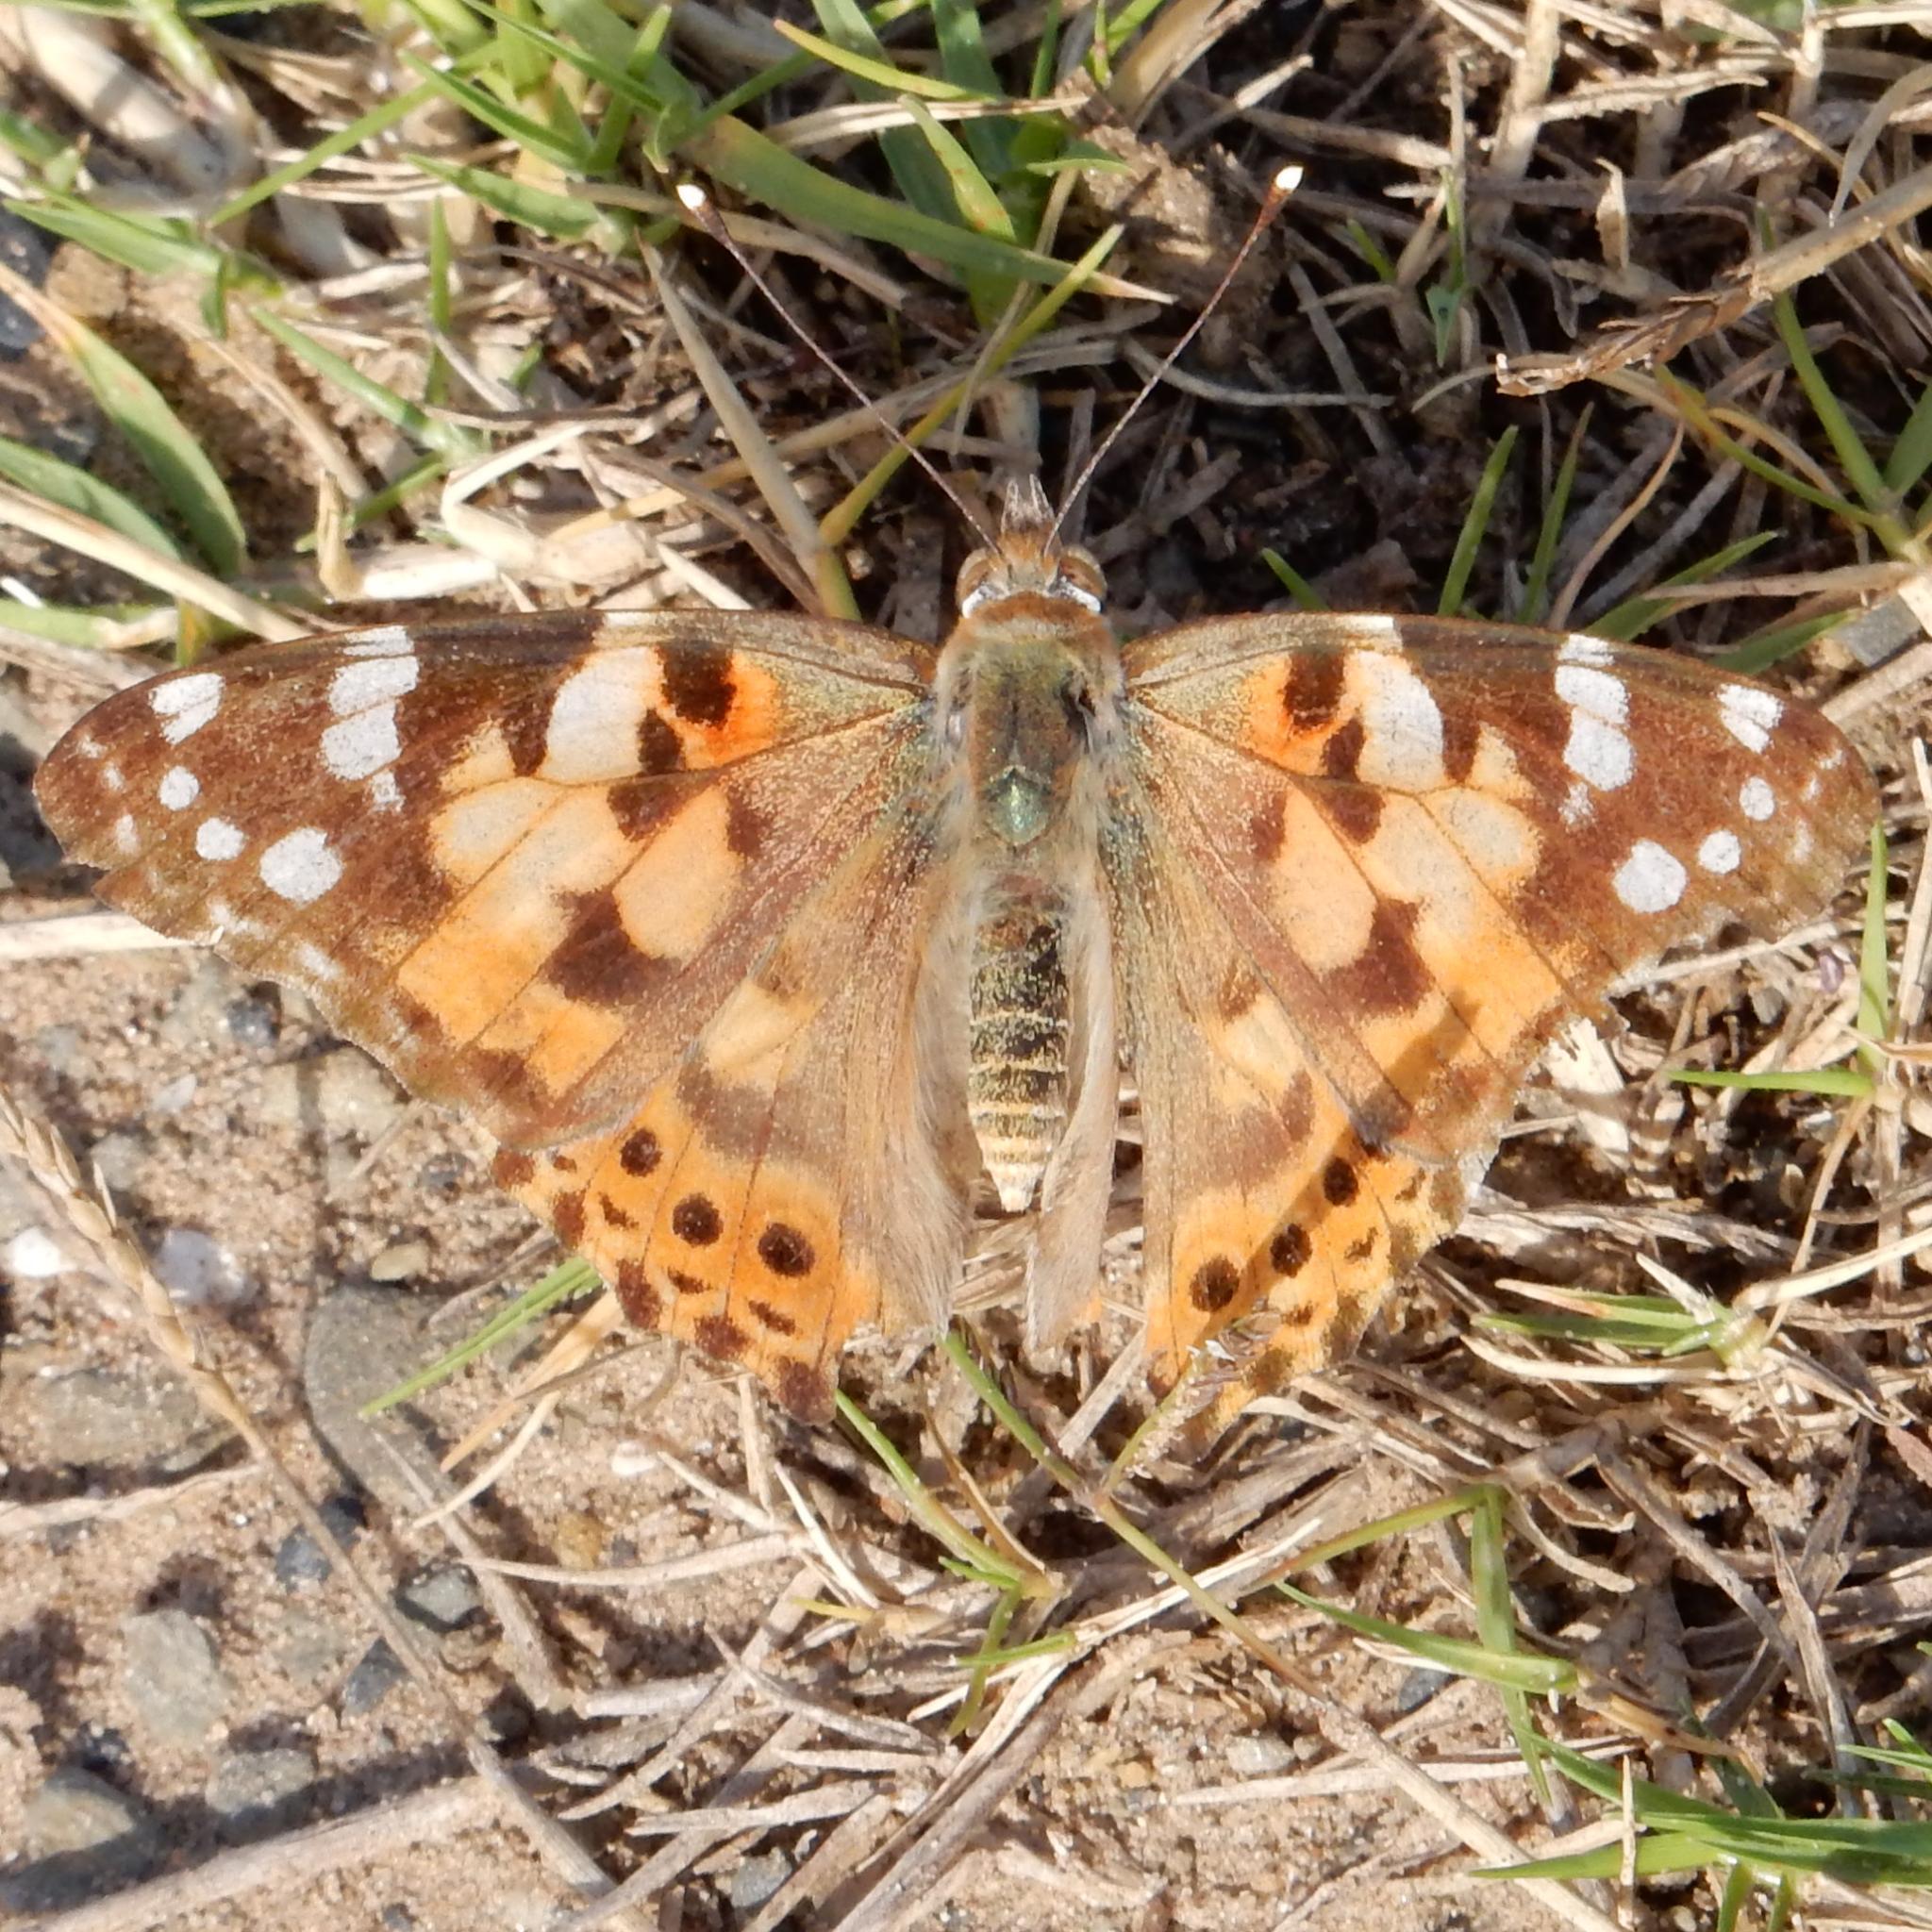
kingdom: Animalia
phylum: Arthropoda
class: Insecta
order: Lepidoptera
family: Nymphalidae
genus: Vanessa
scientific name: Vanessa cardui
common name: Painted lady
